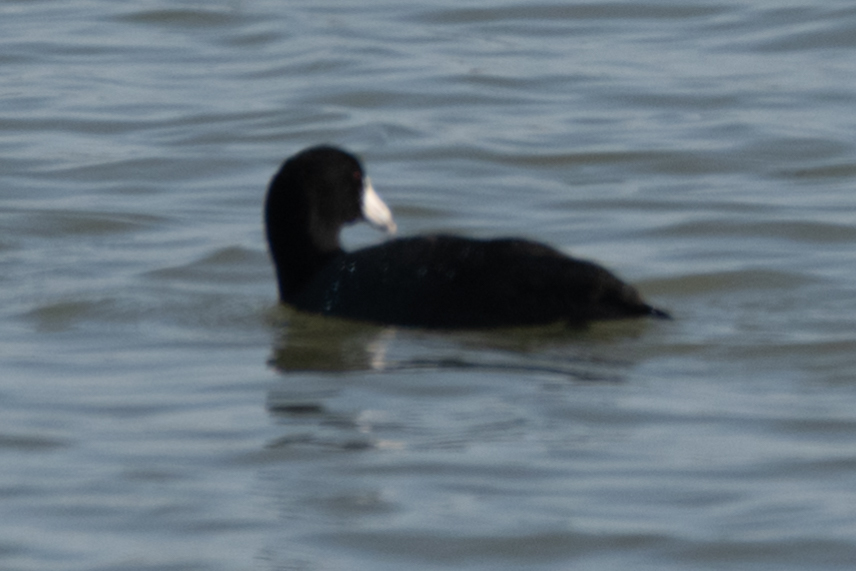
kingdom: Animalia
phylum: Chordata
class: Aves
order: Gruiformes
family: Rallidae
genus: Fulica
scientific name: Fulica americana
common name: American coot
